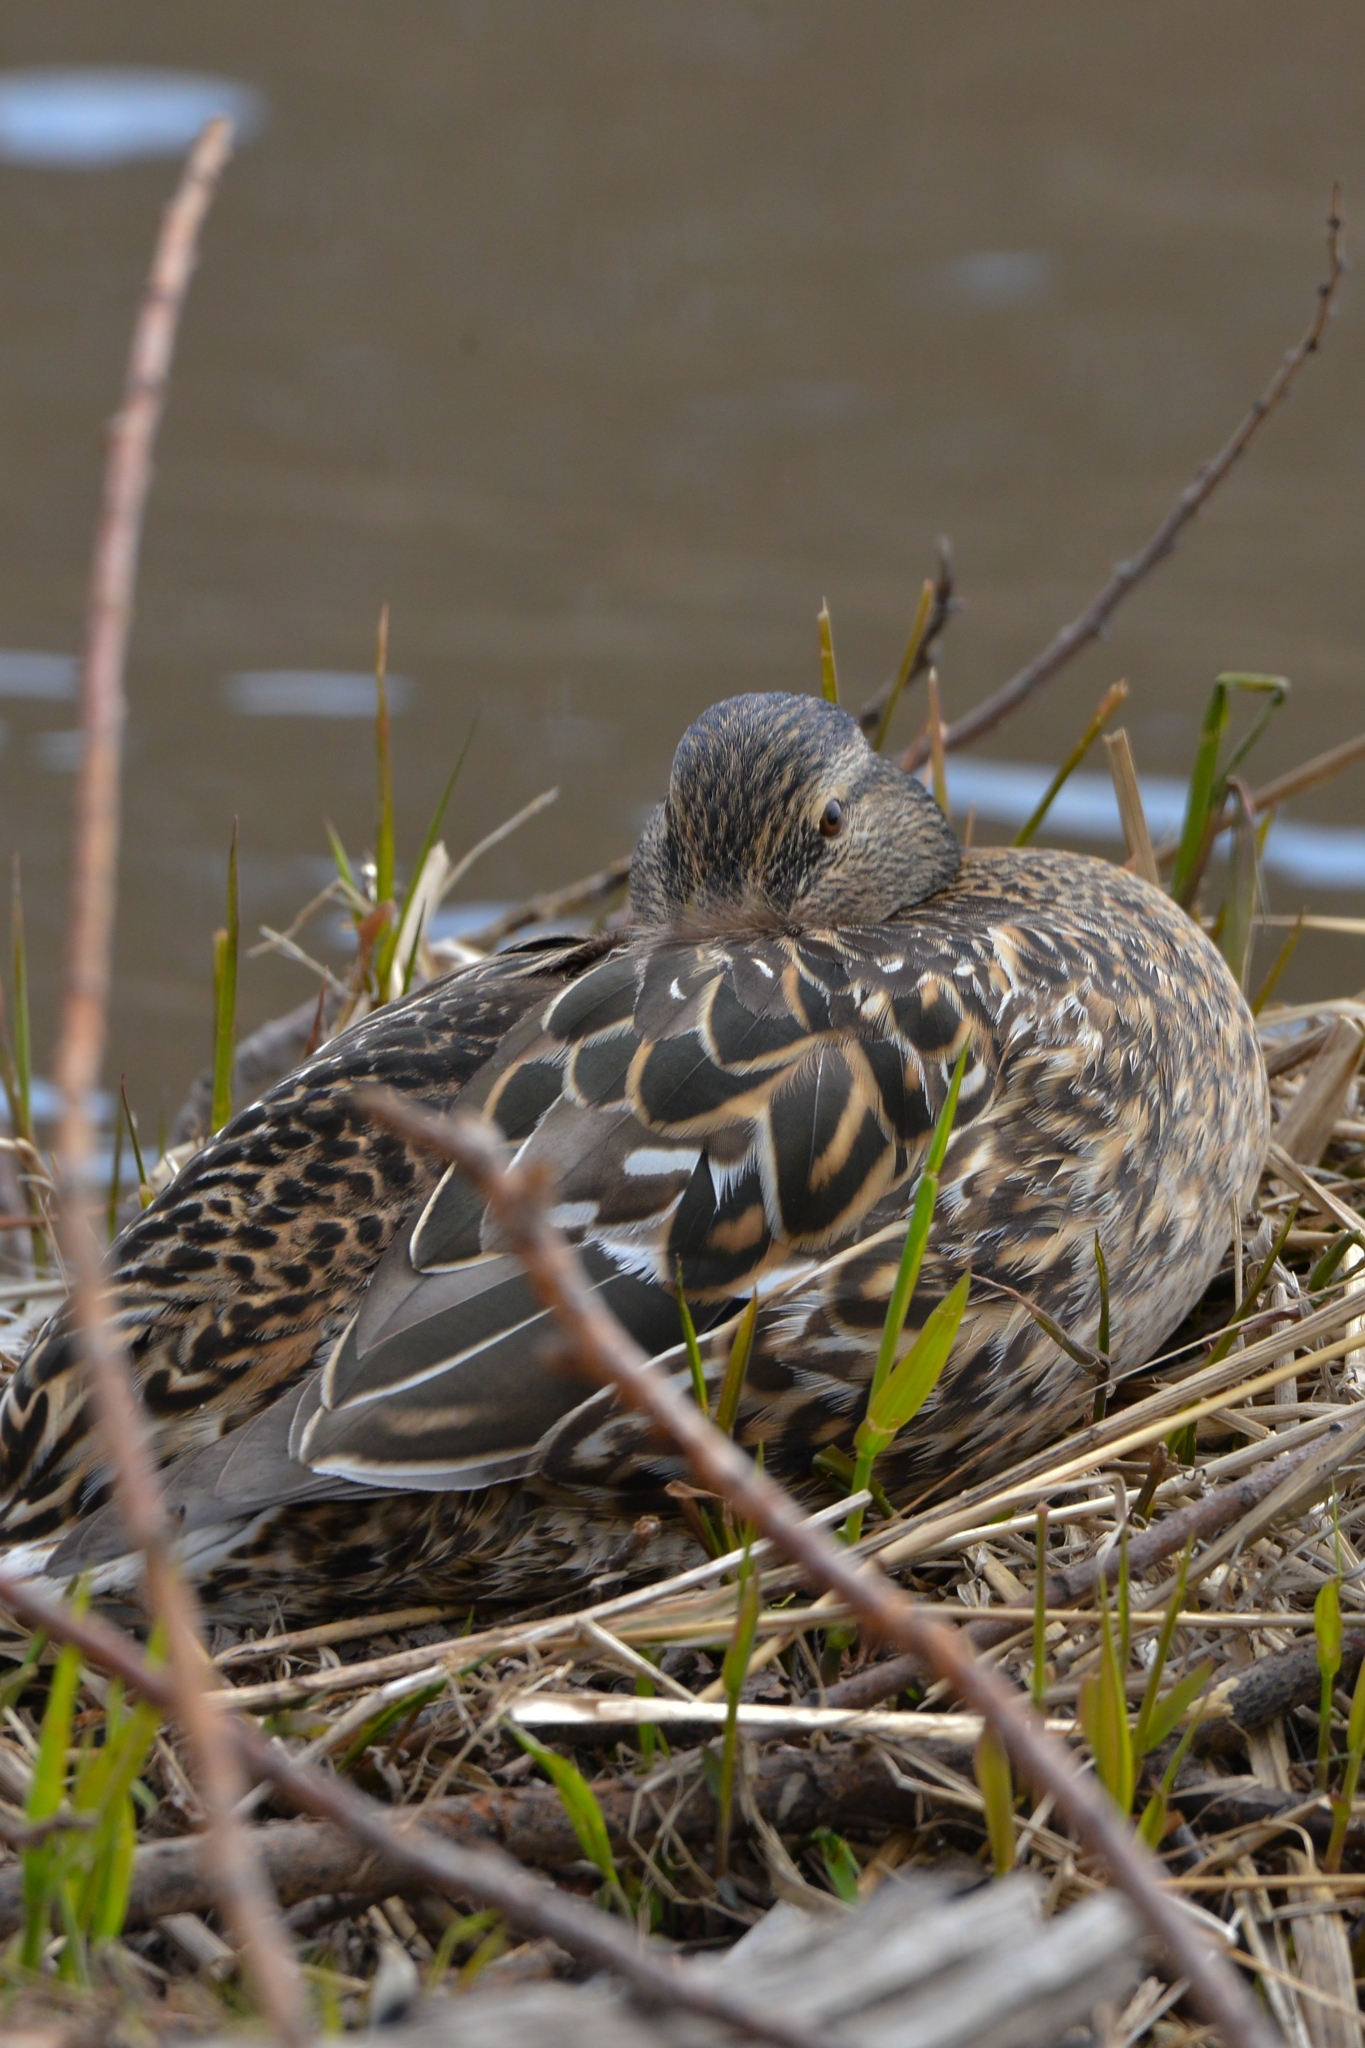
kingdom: Animalia
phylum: Chordata
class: Aves
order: Anseriformes
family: Anatidae
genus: Anas
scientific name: Anas platyrhynchos
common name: Mallard
